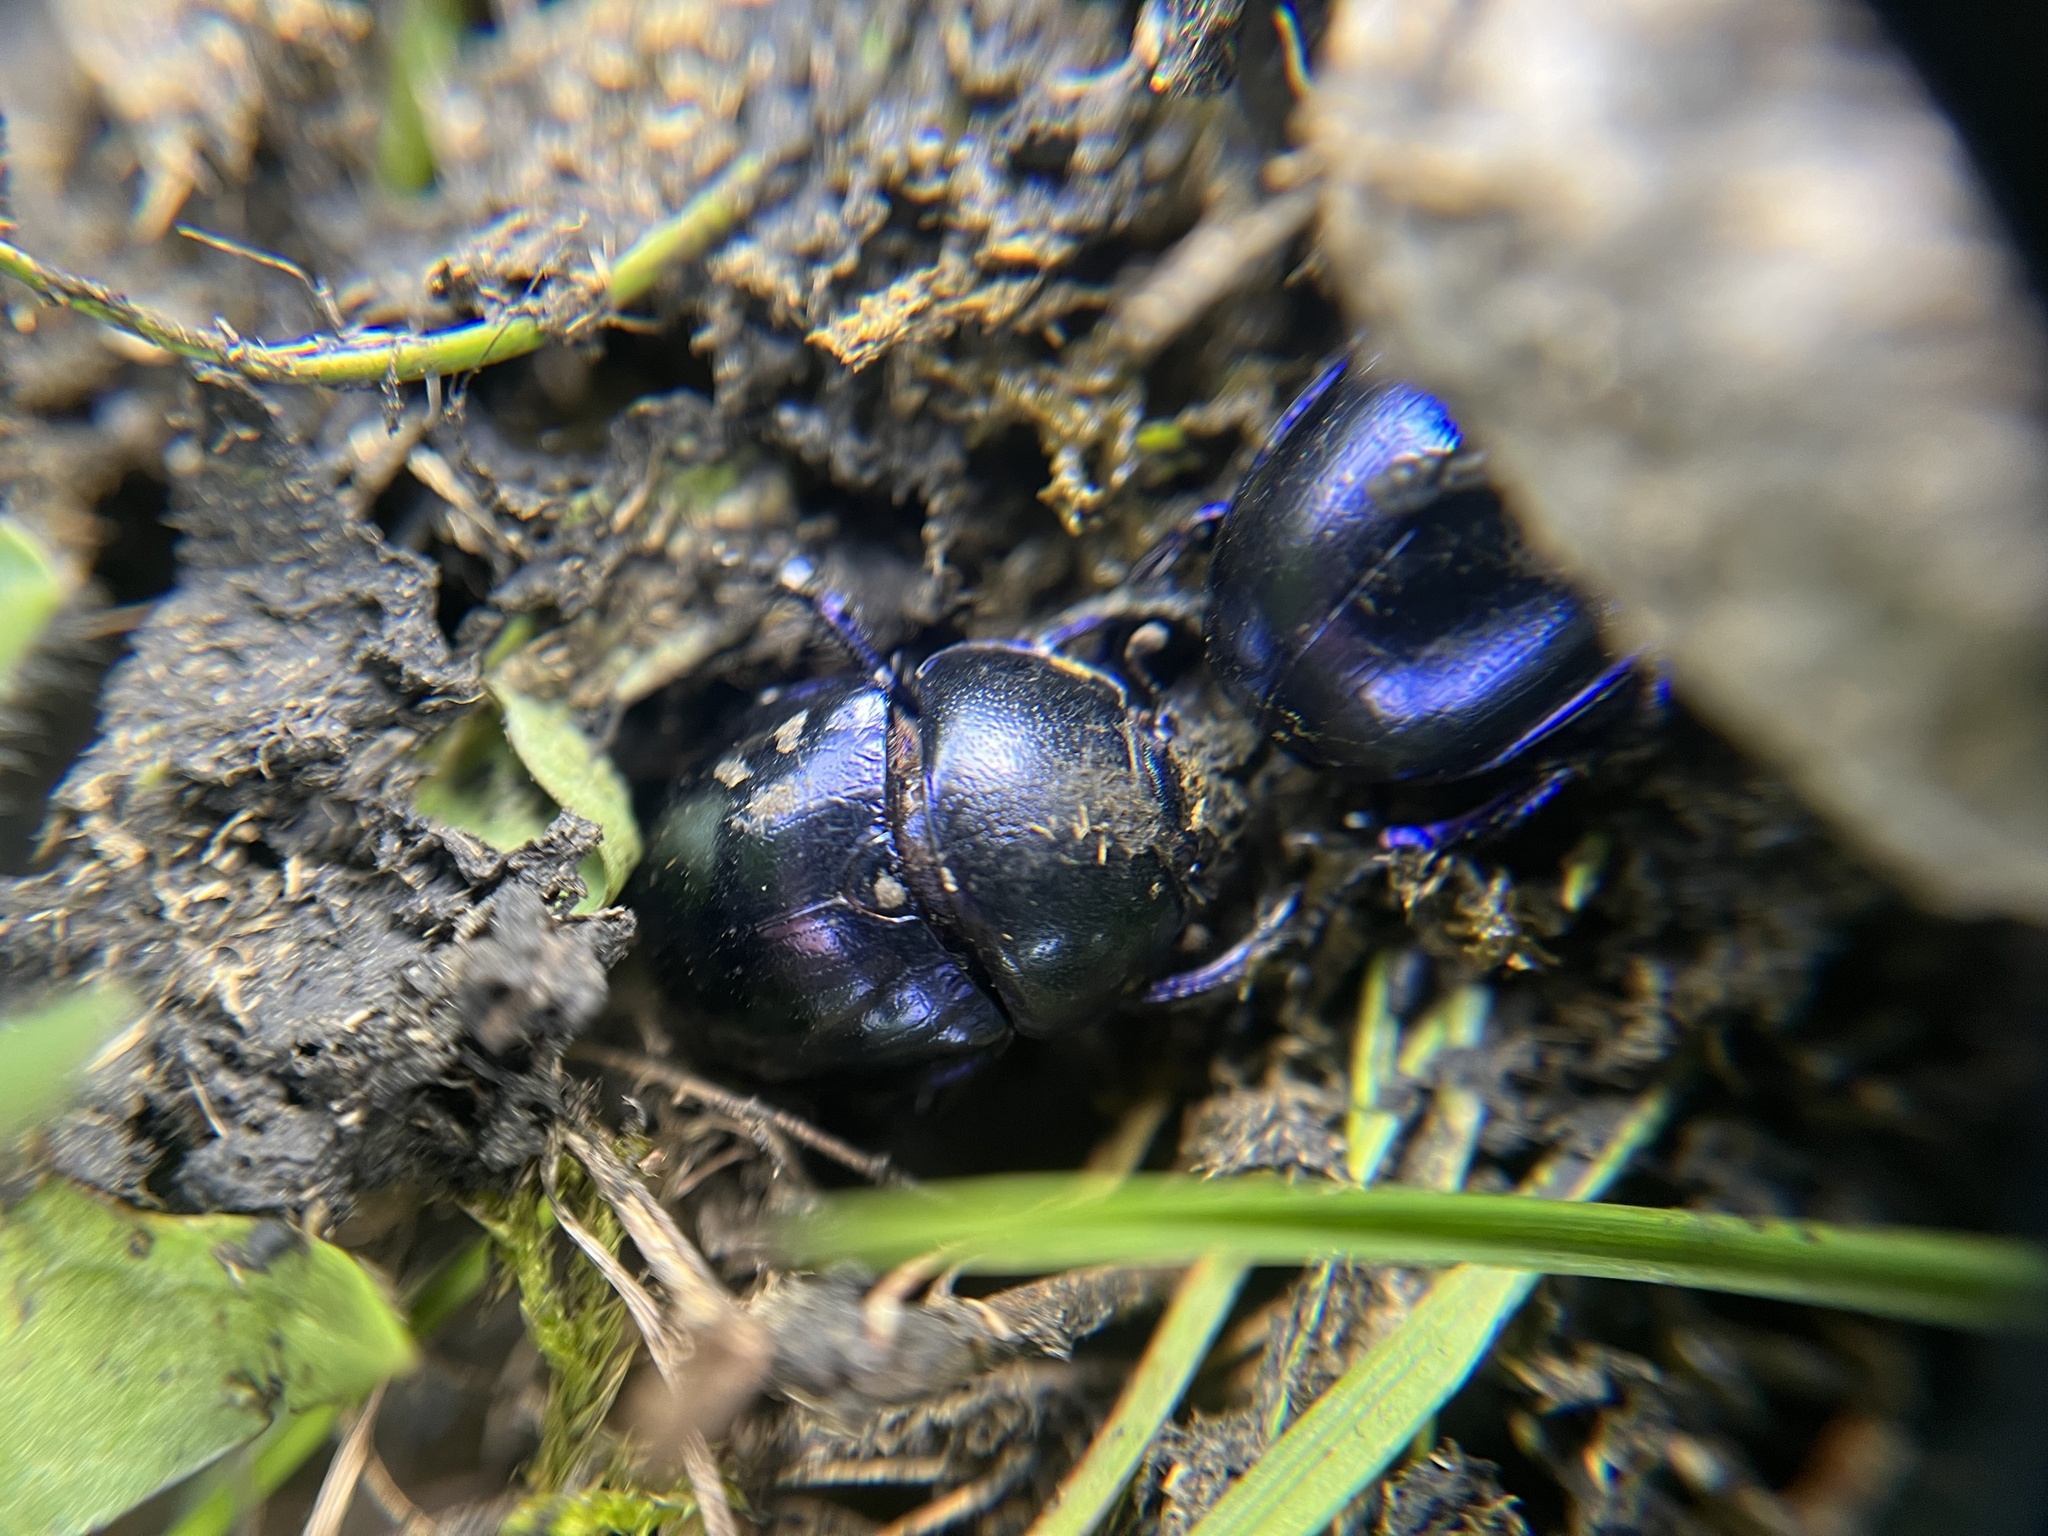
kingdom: Animalia
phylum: Arthropoda
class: Insecta
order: Coleoptera
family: Geotrupidae
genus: Trypocopris
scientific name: Trypocopris vernalis
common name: Spring dumbledor
